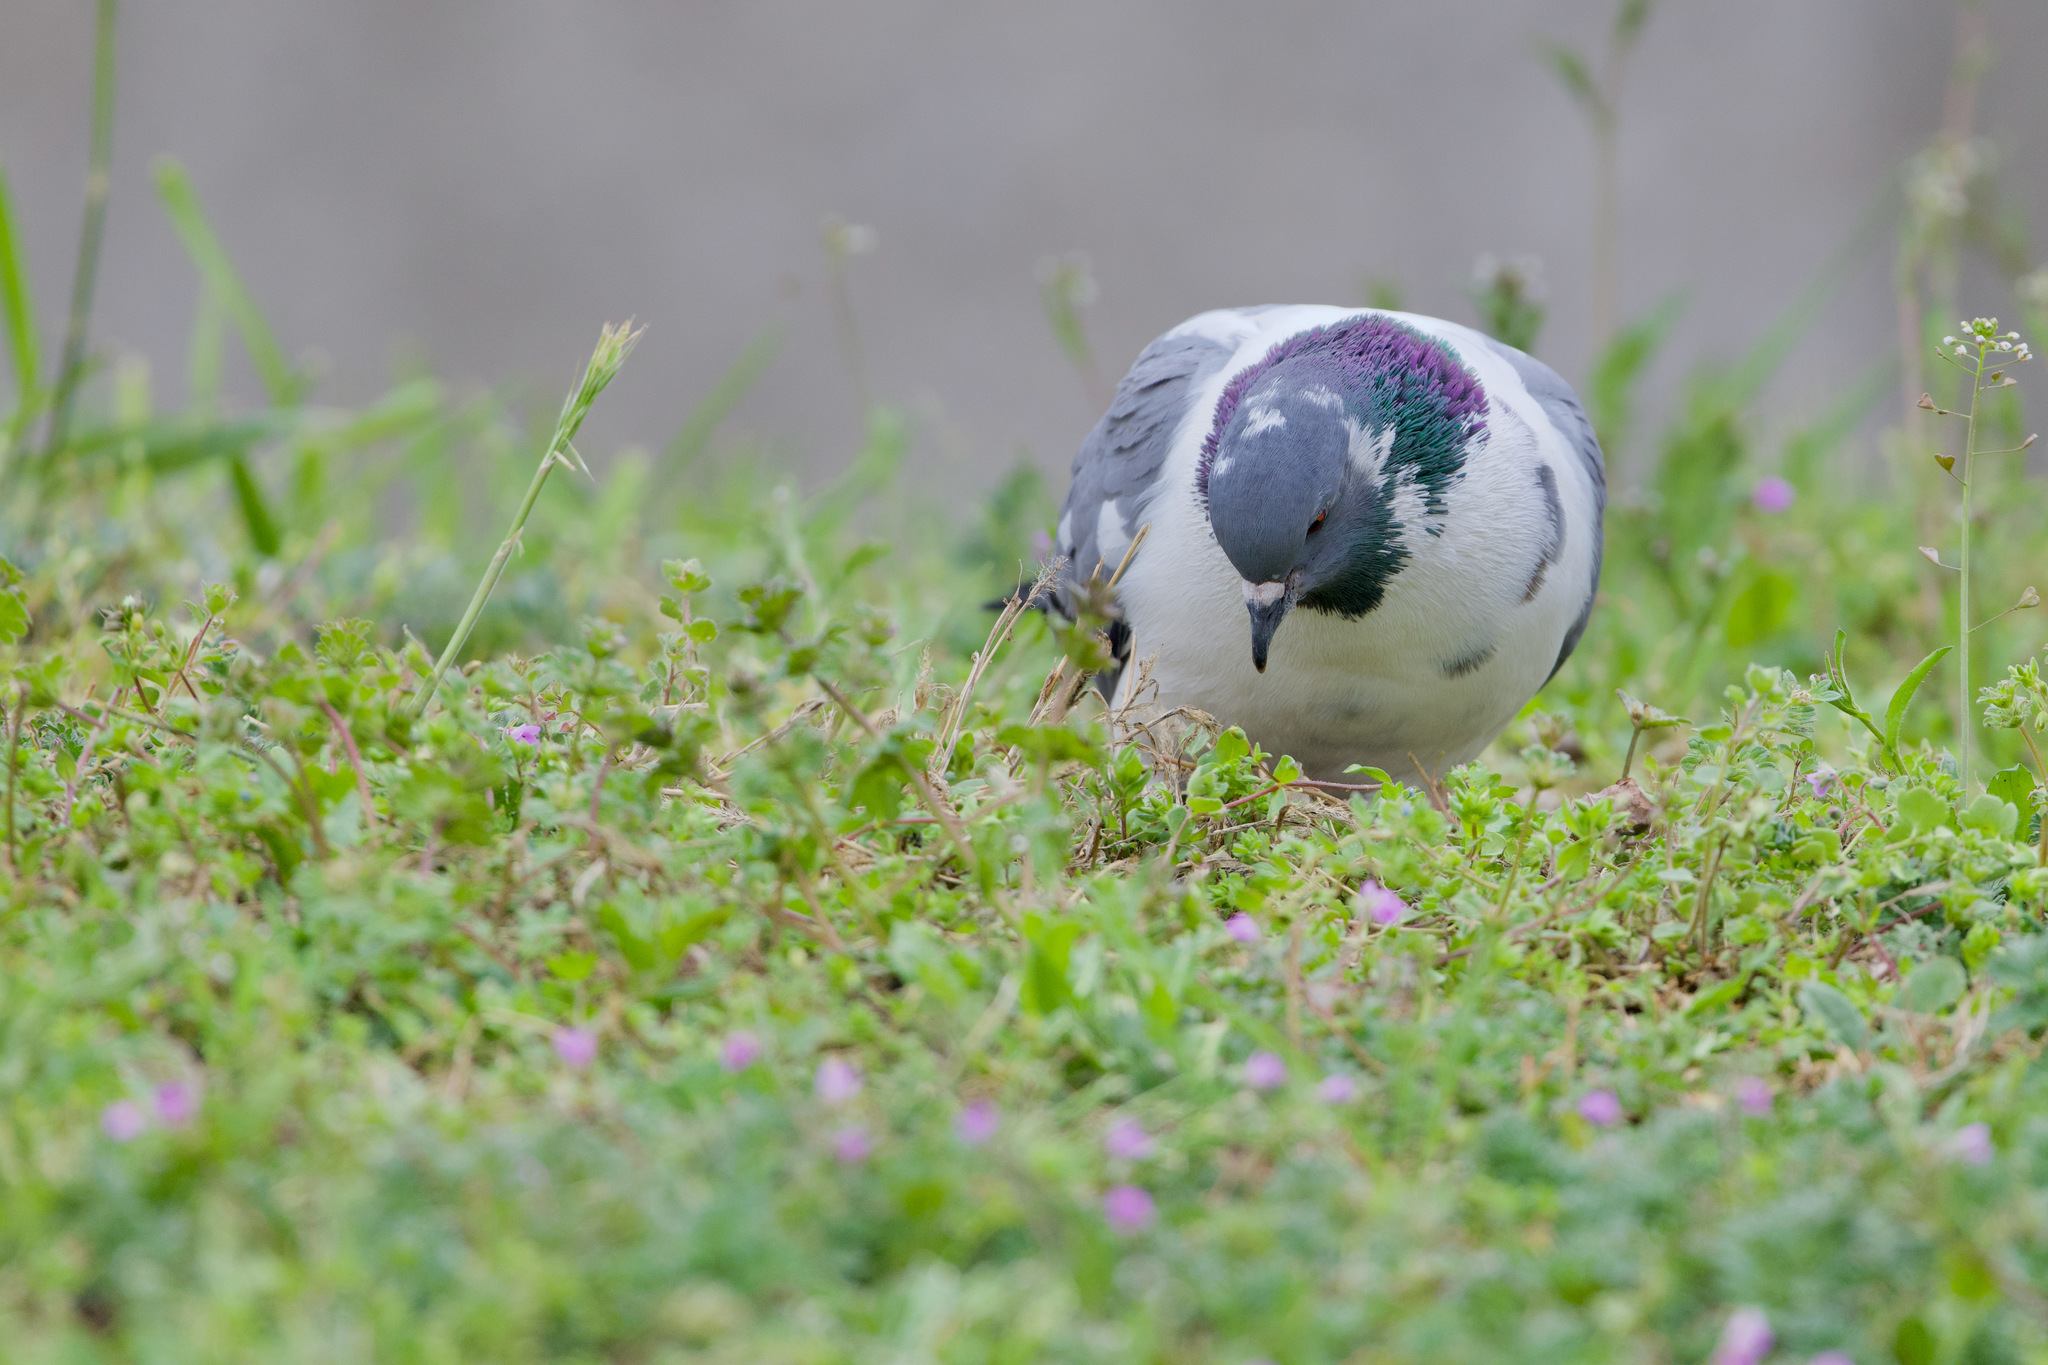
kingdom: Animalia
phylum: Chordata
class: Aves
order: Columbiformes
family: Columbidae
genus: Columba
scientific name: Columba livia
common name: Rock pigeon
